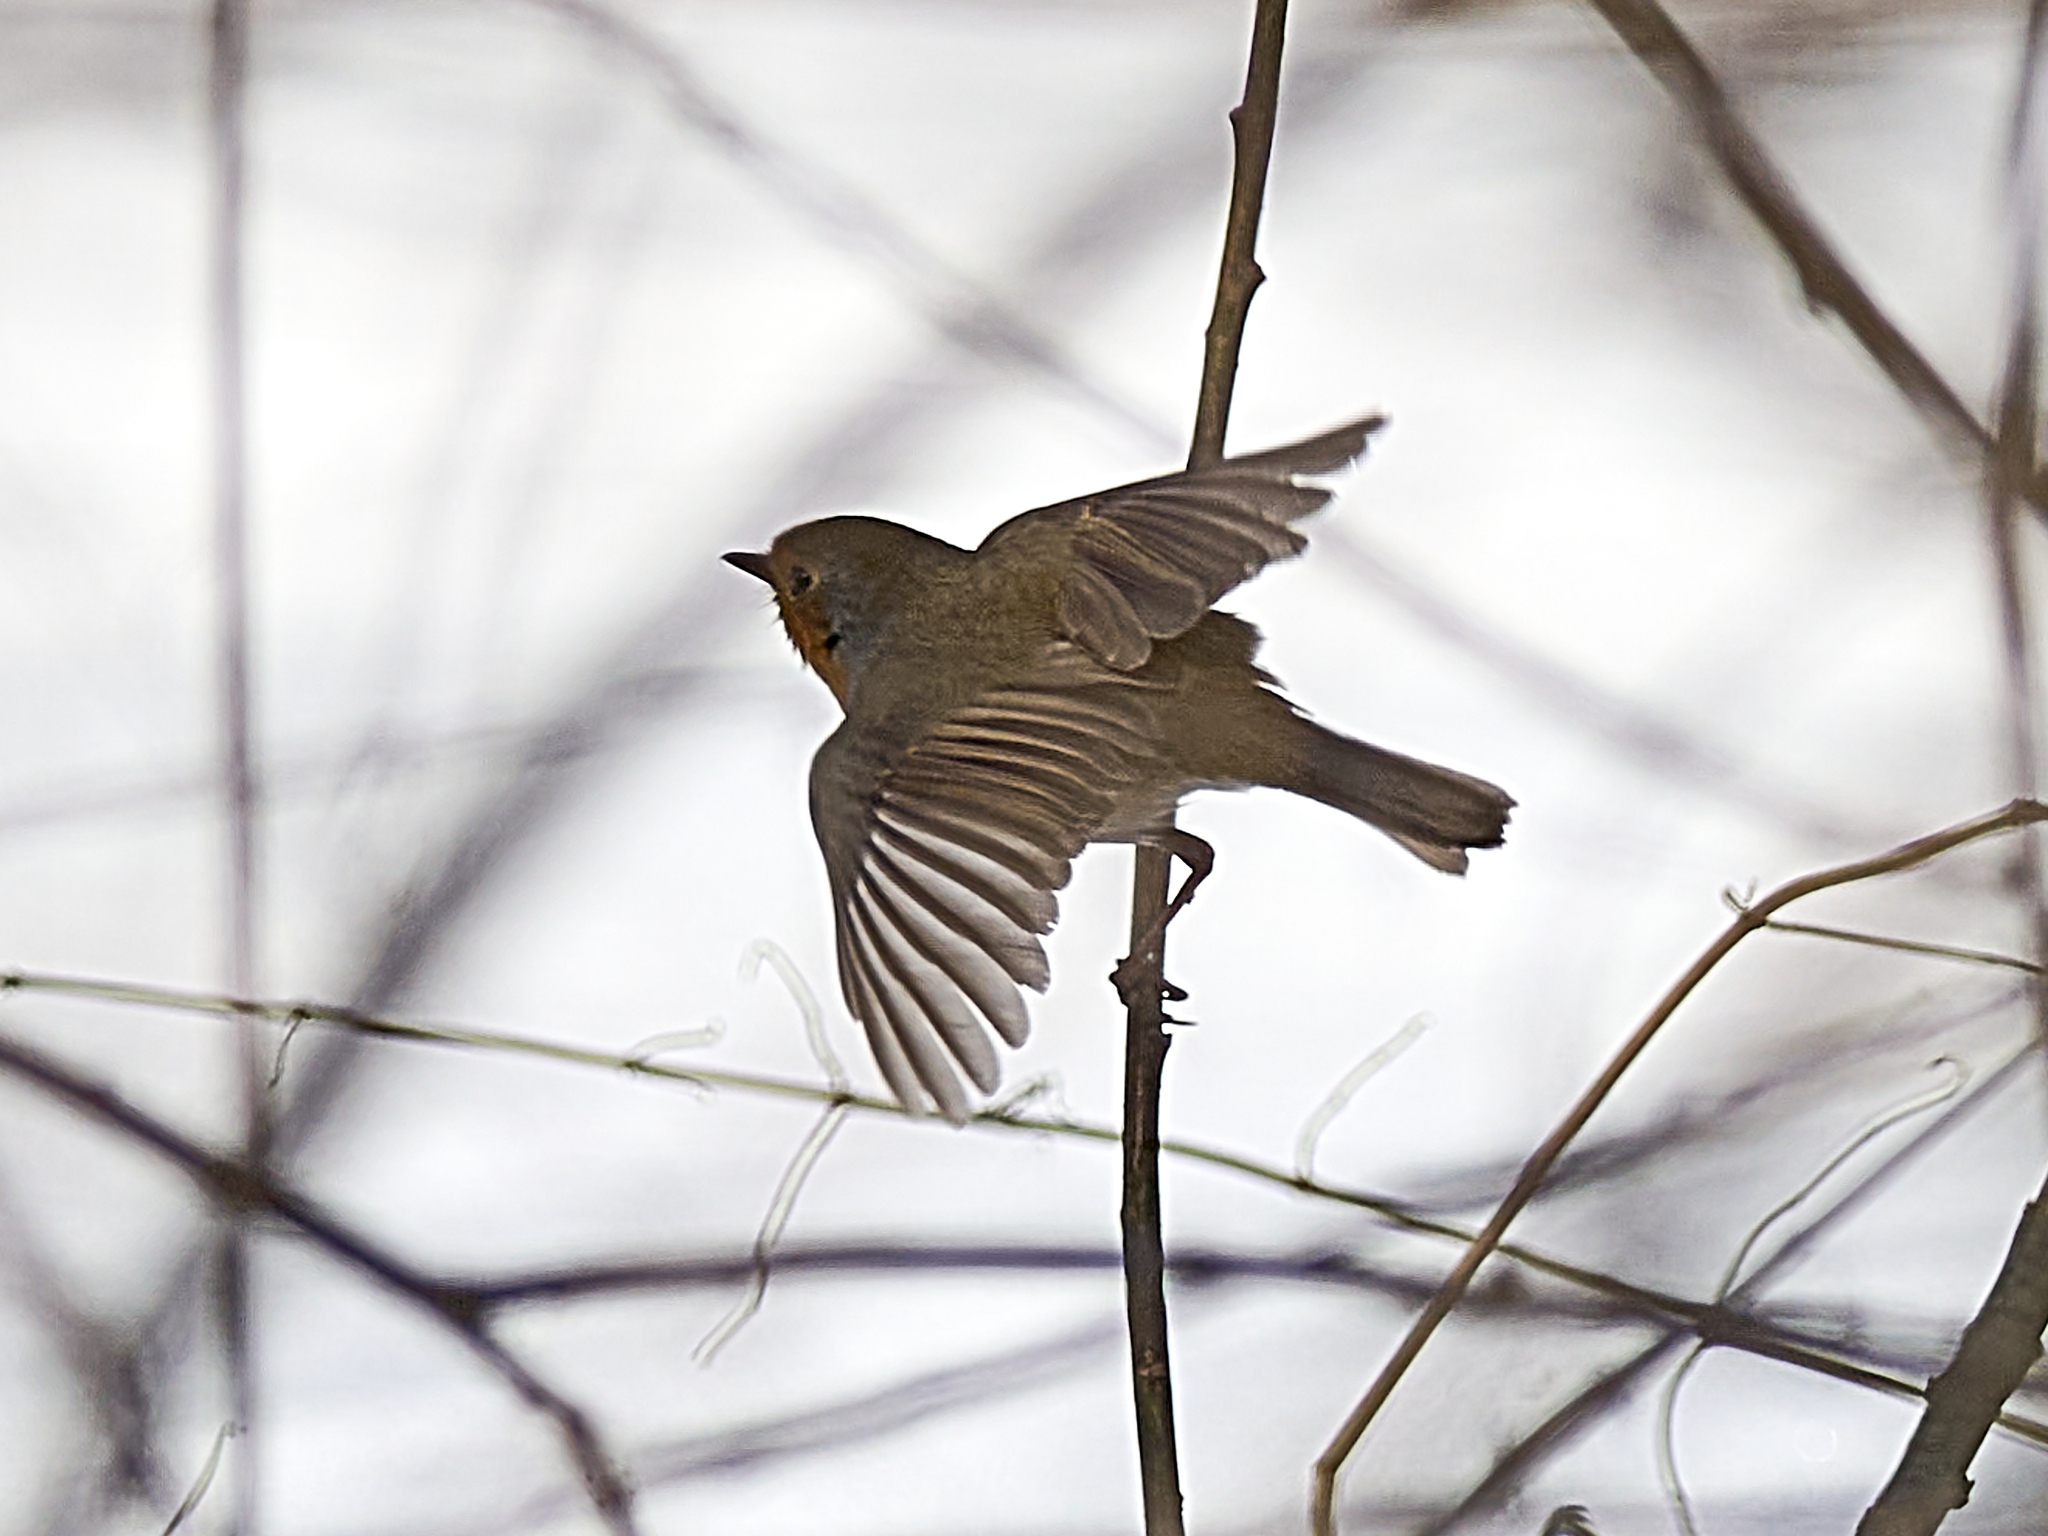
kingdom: Animalia
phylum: Chordata
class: Aves
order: Passeriformes
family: Muscicapidae
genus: Erithacus
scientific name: Erithacus rubecula
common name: European robin
